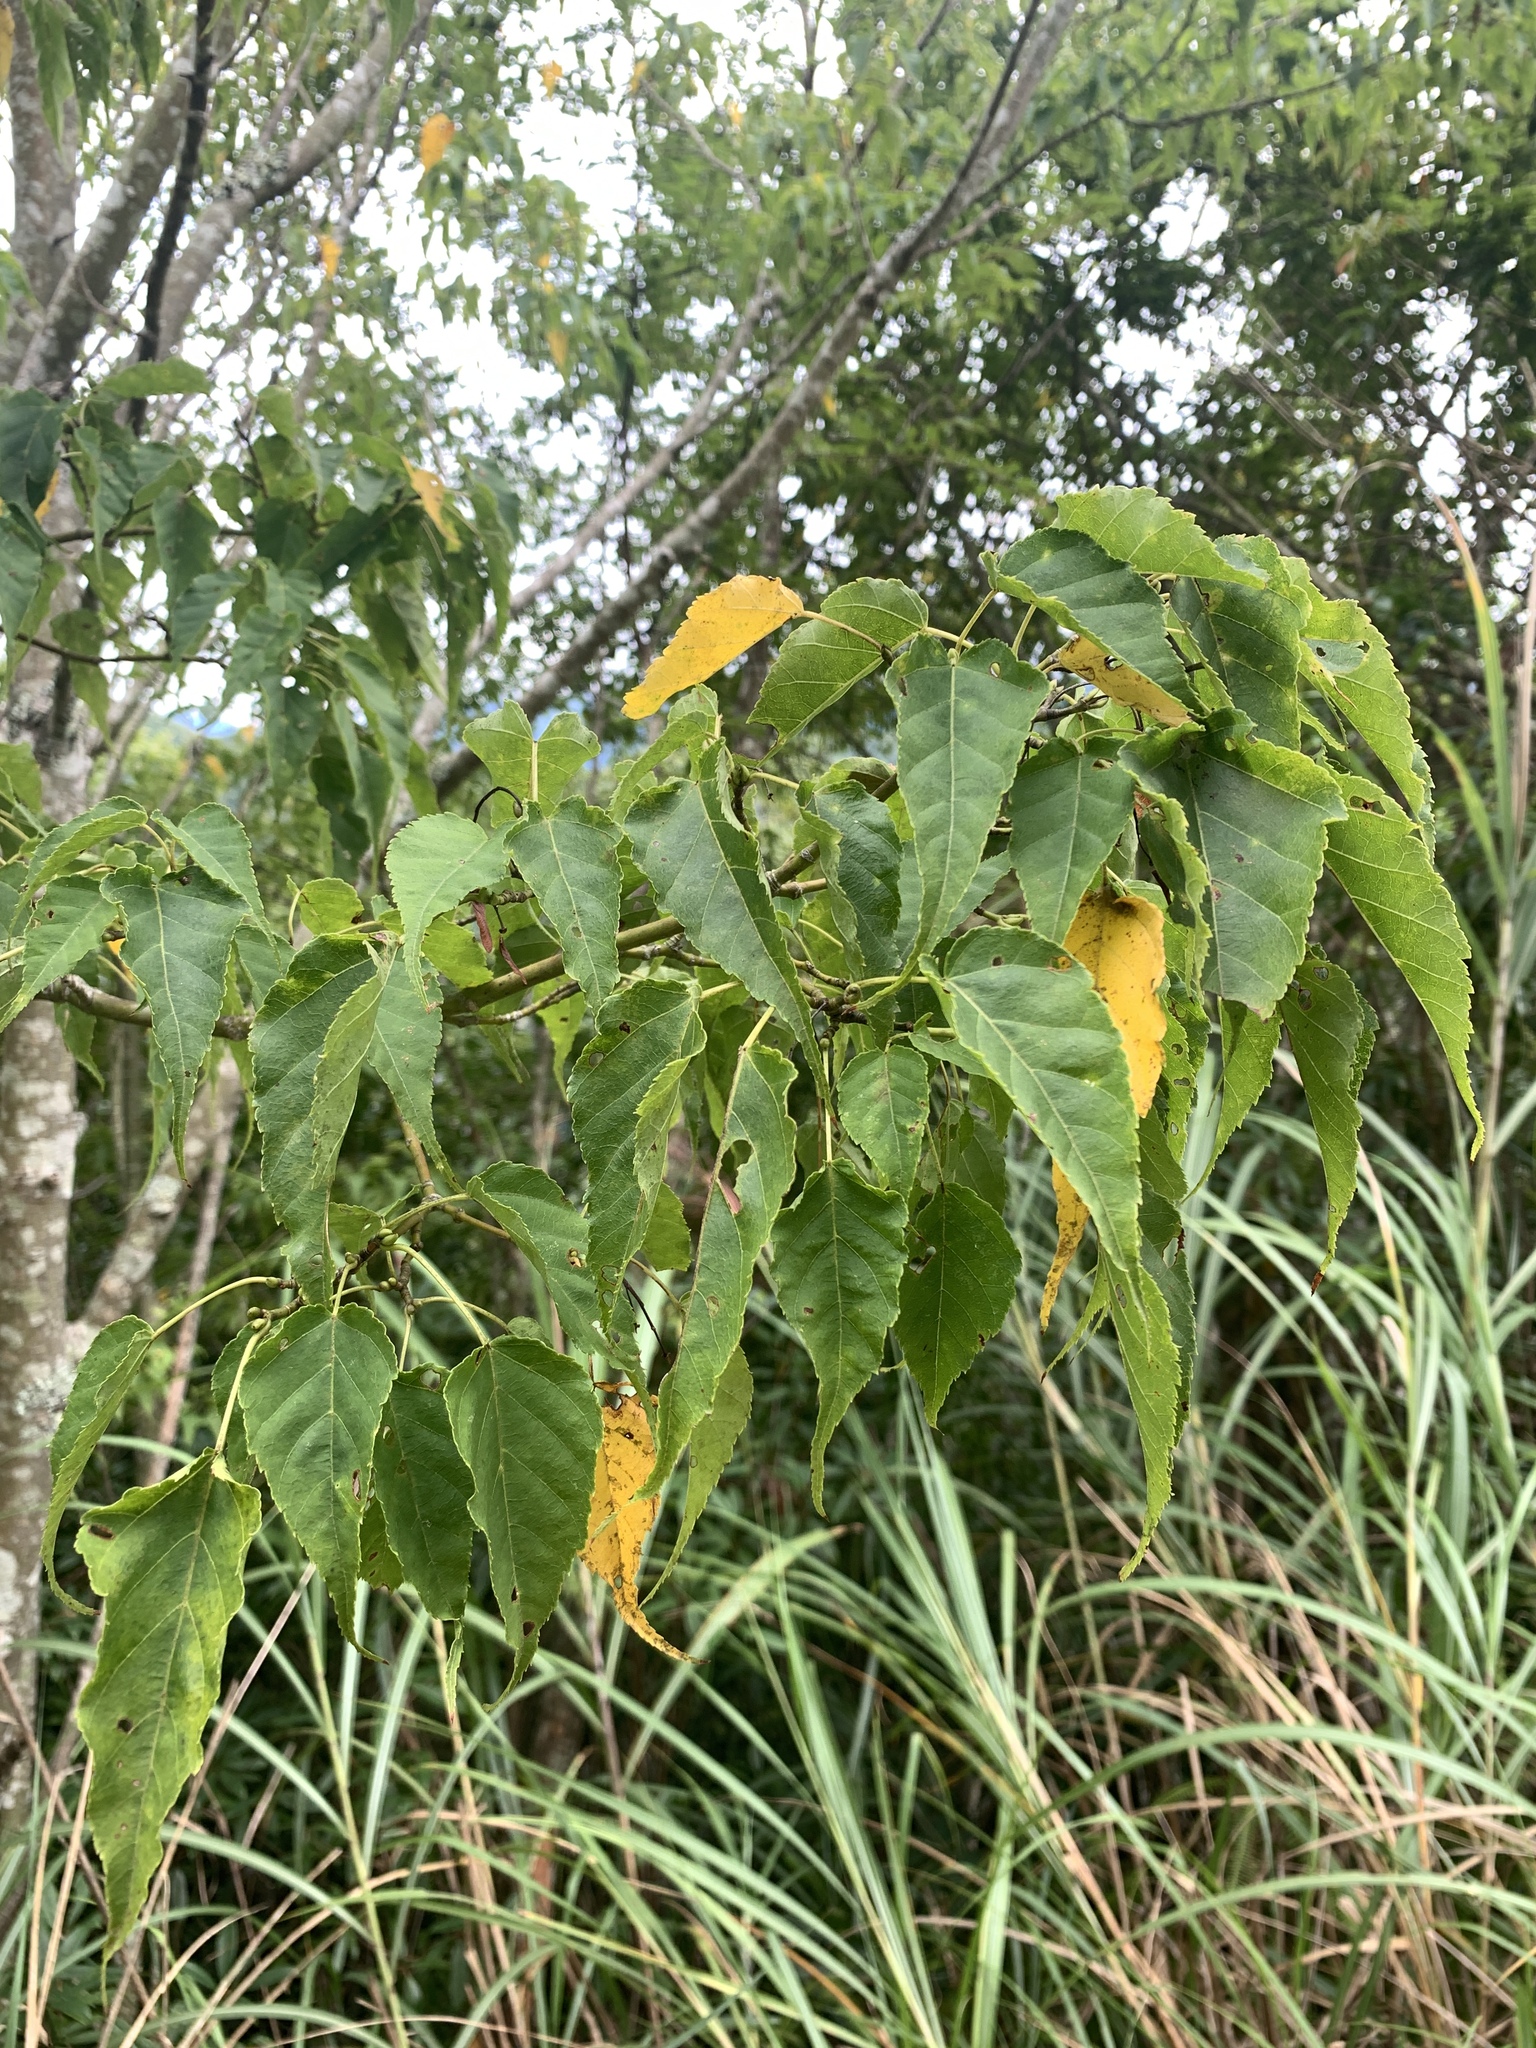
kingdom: Plantae
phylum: Tracheophyta
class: Magnoliopsida
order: Sapindales
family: Sapindaceae
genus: Acer
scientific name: Acer caudatifolium
